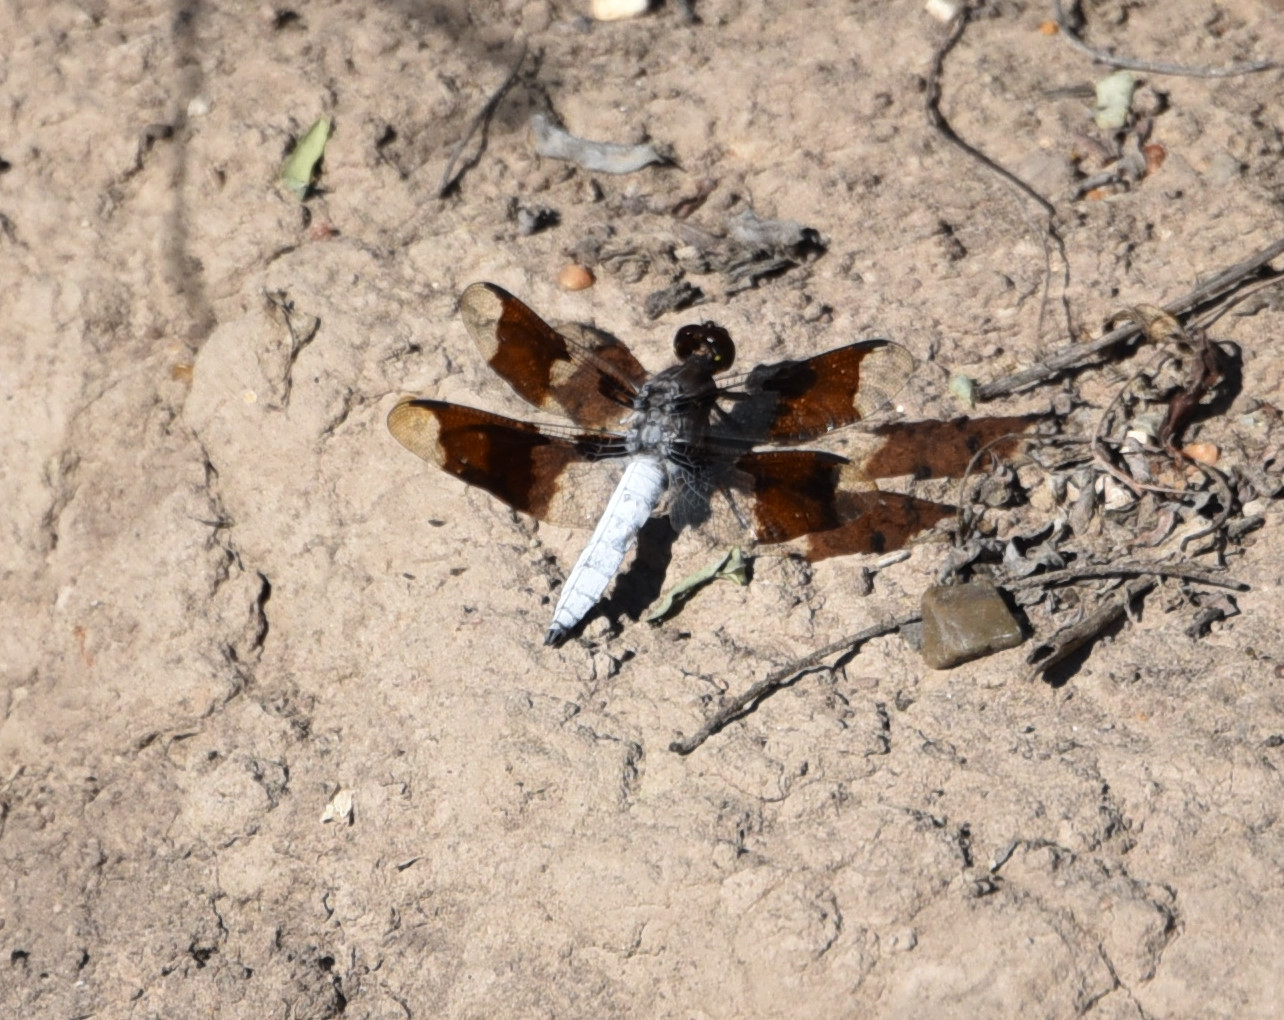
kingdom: Animalia
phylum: Arthropoda
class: Insecta
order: Odonata
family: Libellulidae
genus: Plathemis
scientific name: Plathemis lydia
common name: Common whitetail
